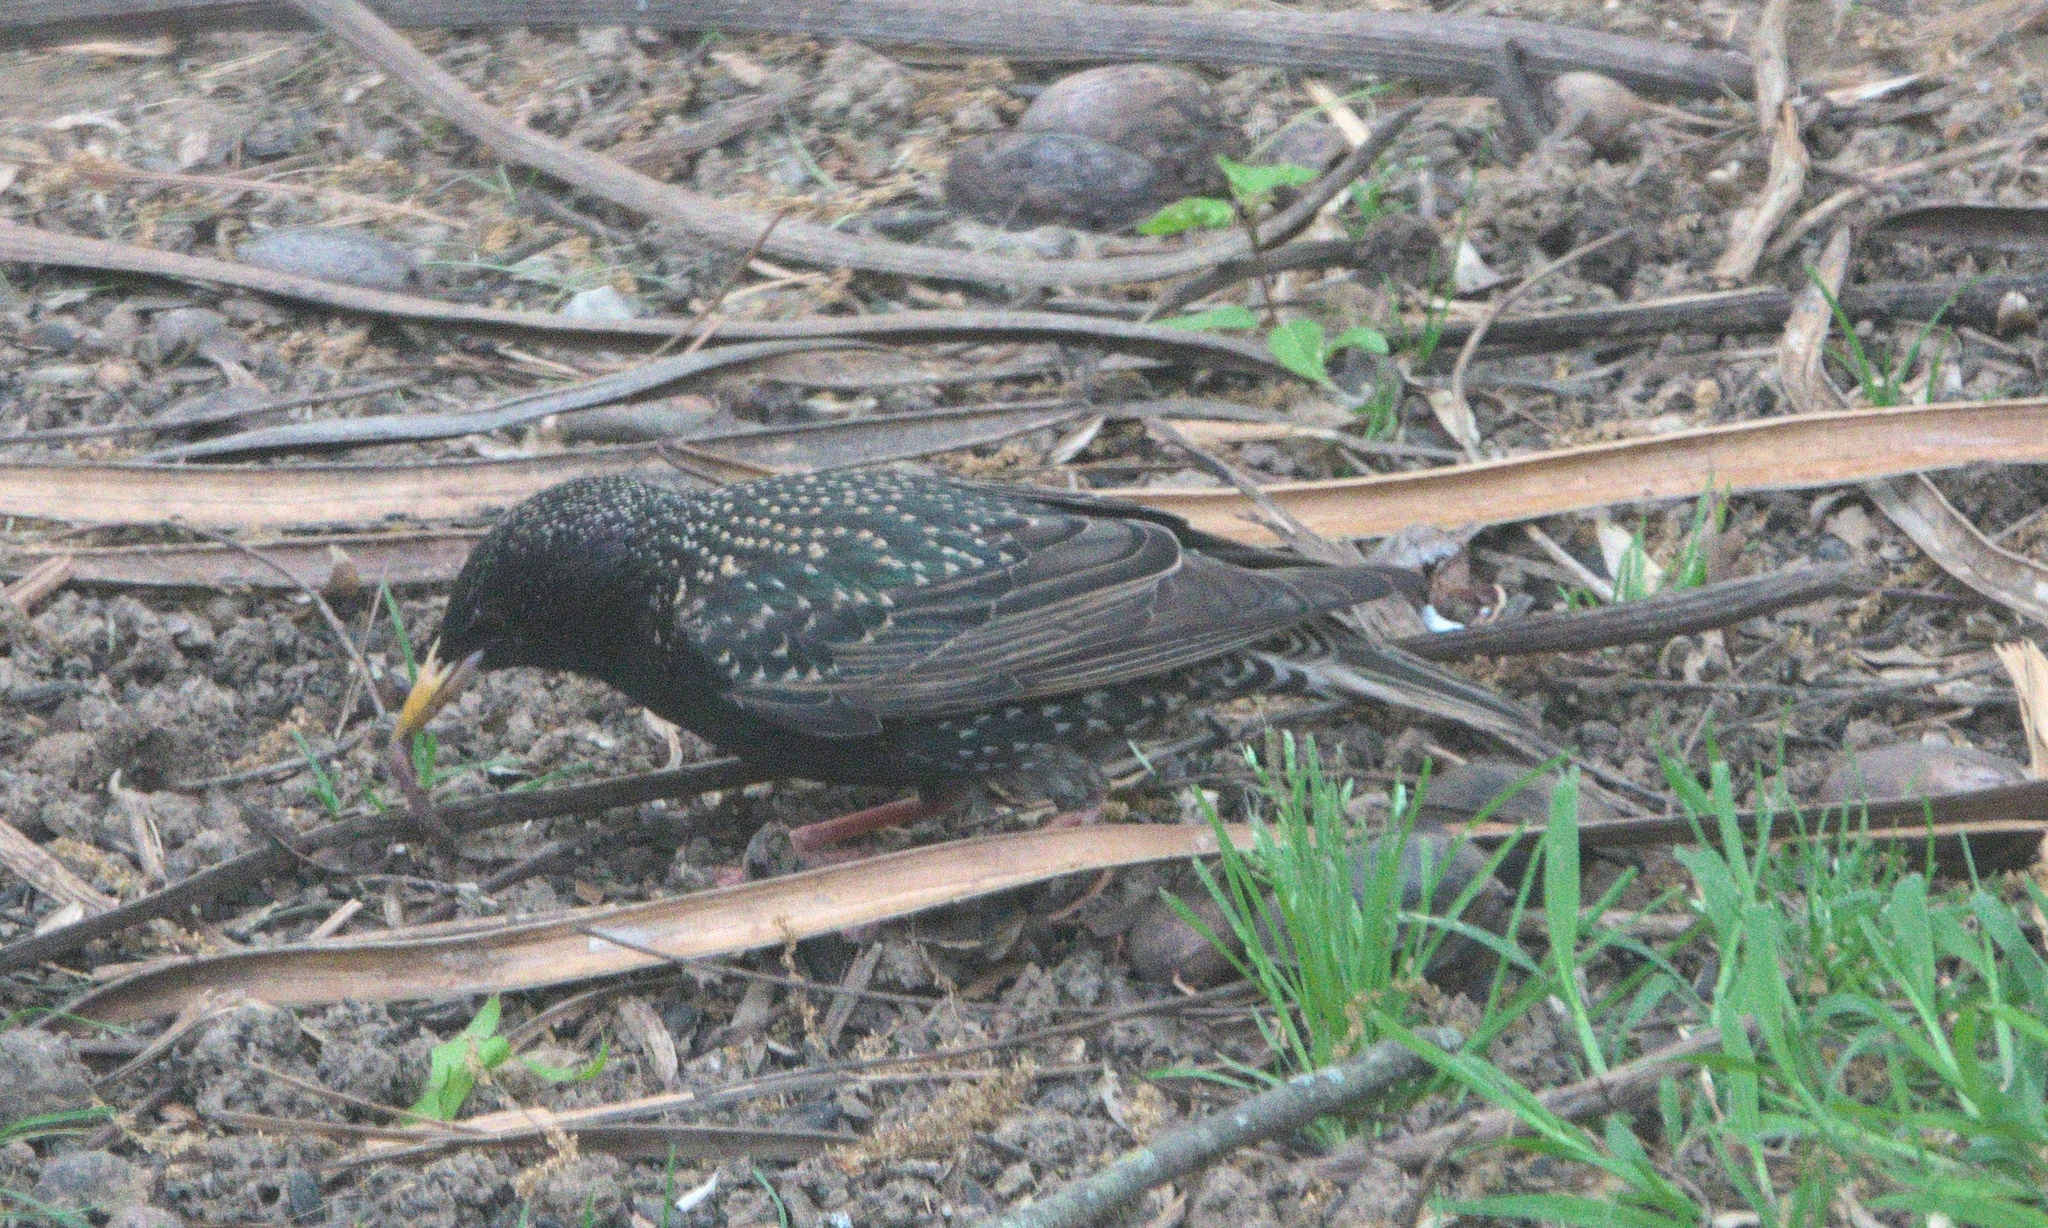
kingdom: Animalia
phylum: Chordata
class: Aves
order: Passeriformes
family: Sturnidae
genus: Sturnus
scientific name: Sturnus vulgaris
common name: Common starling
